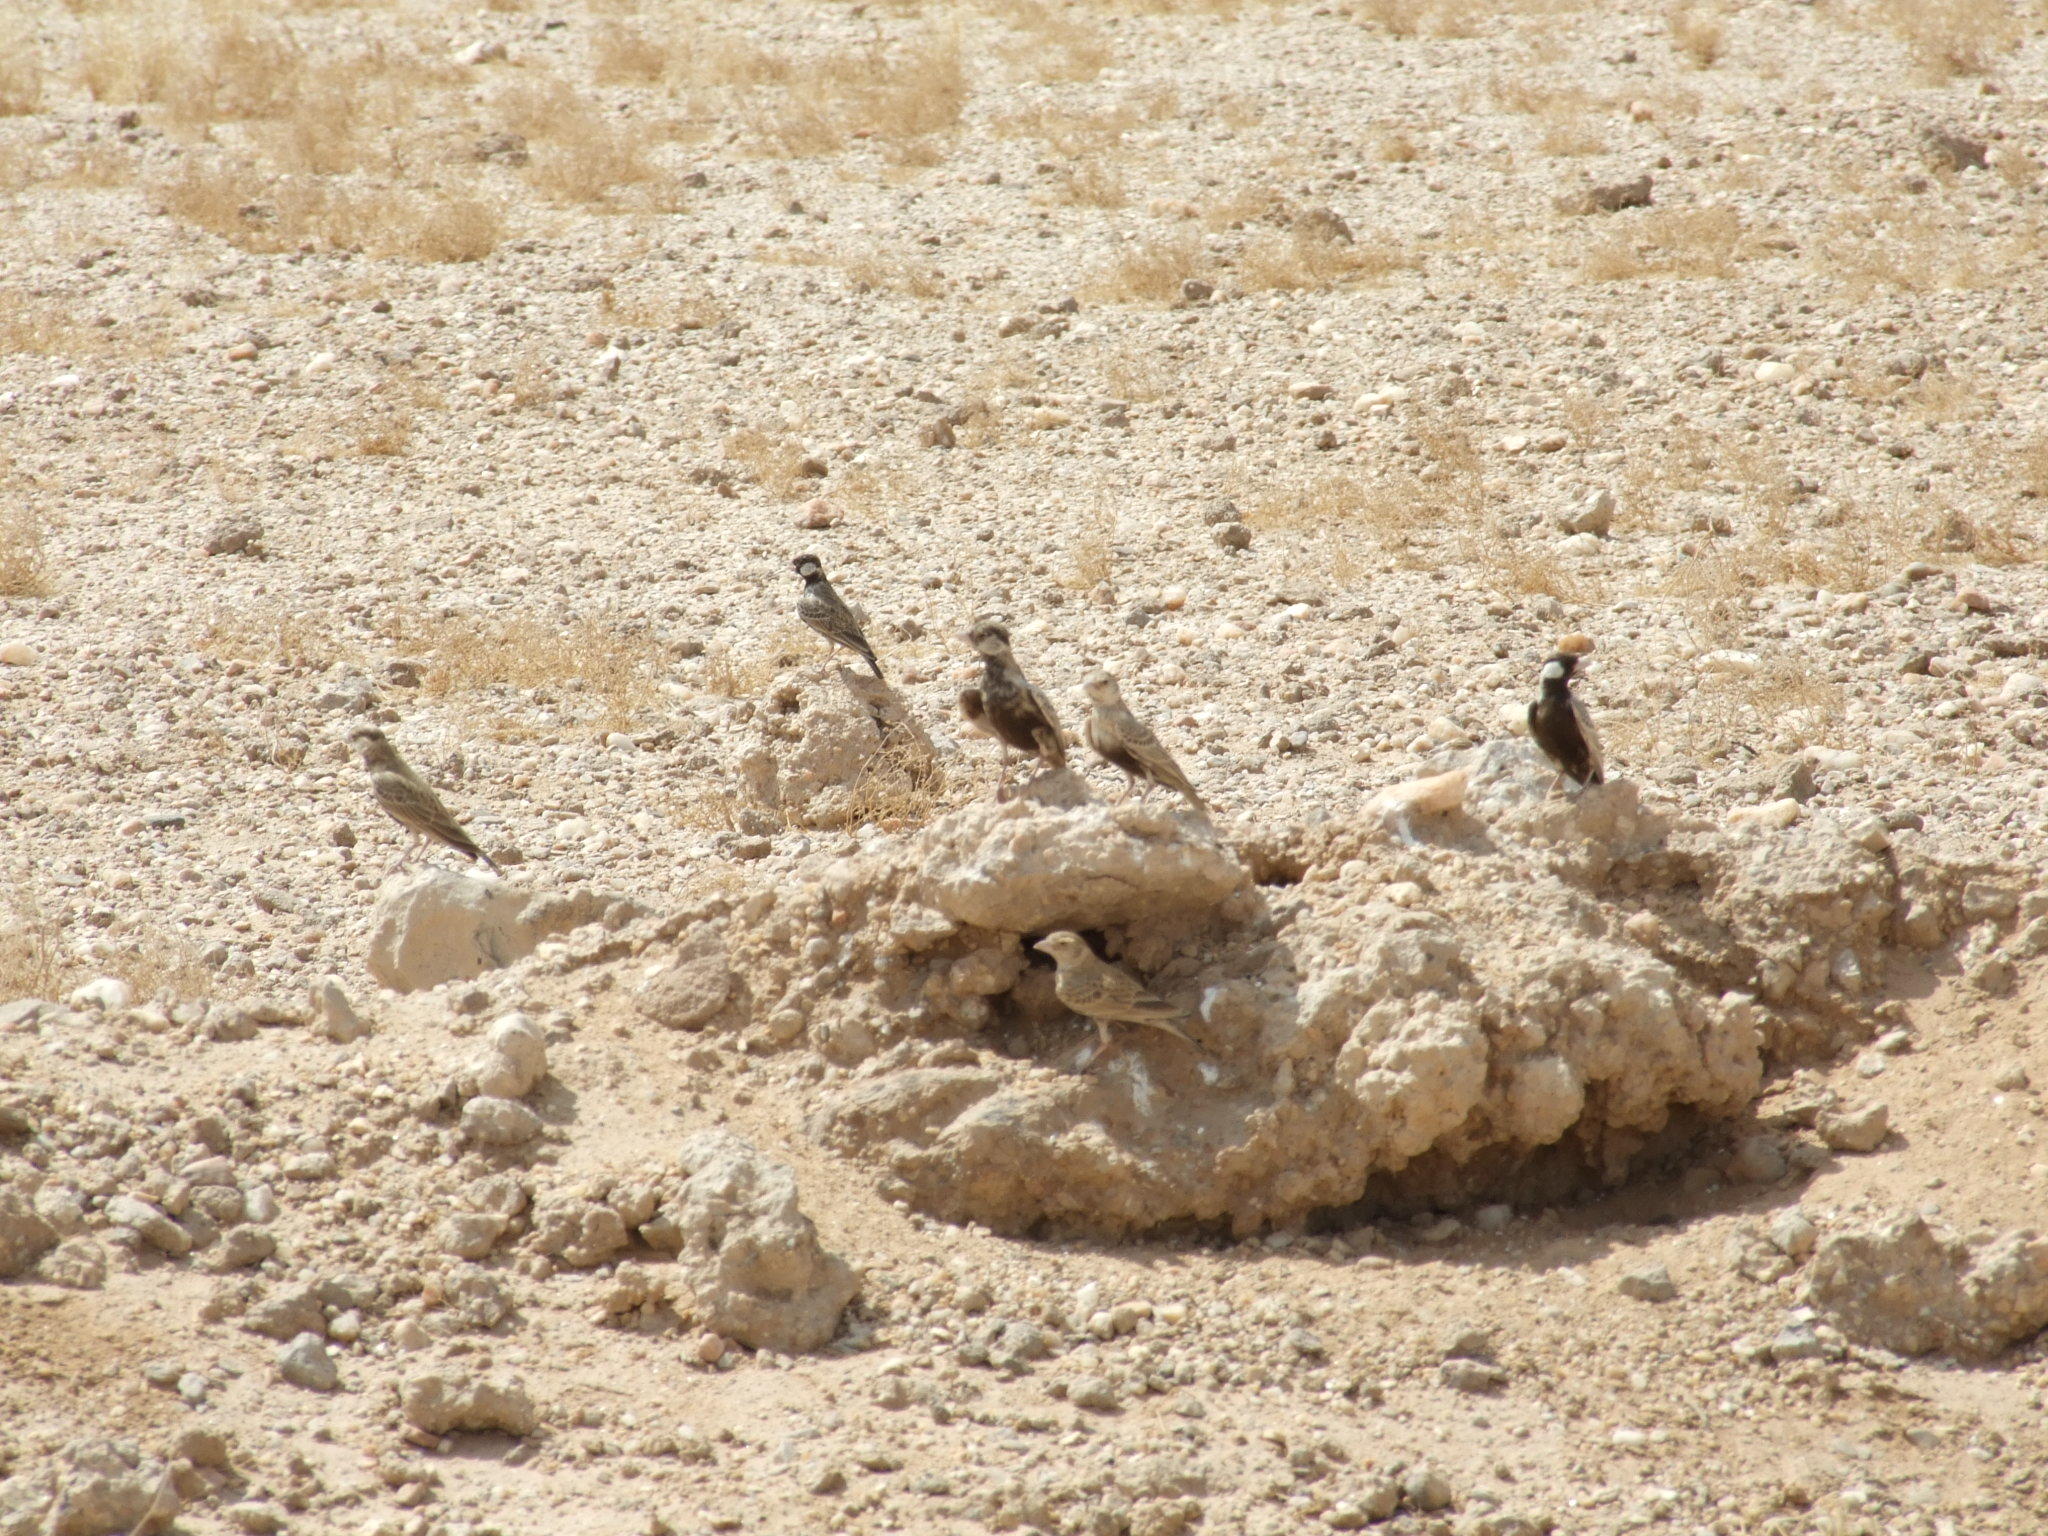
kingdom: Animalia
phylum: Chordata
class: Aves
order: Passeriformes
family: Alaudidae
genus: Eremopterix
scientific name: Eremopterix verticalis
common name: Grey-backed sparrow-lark
